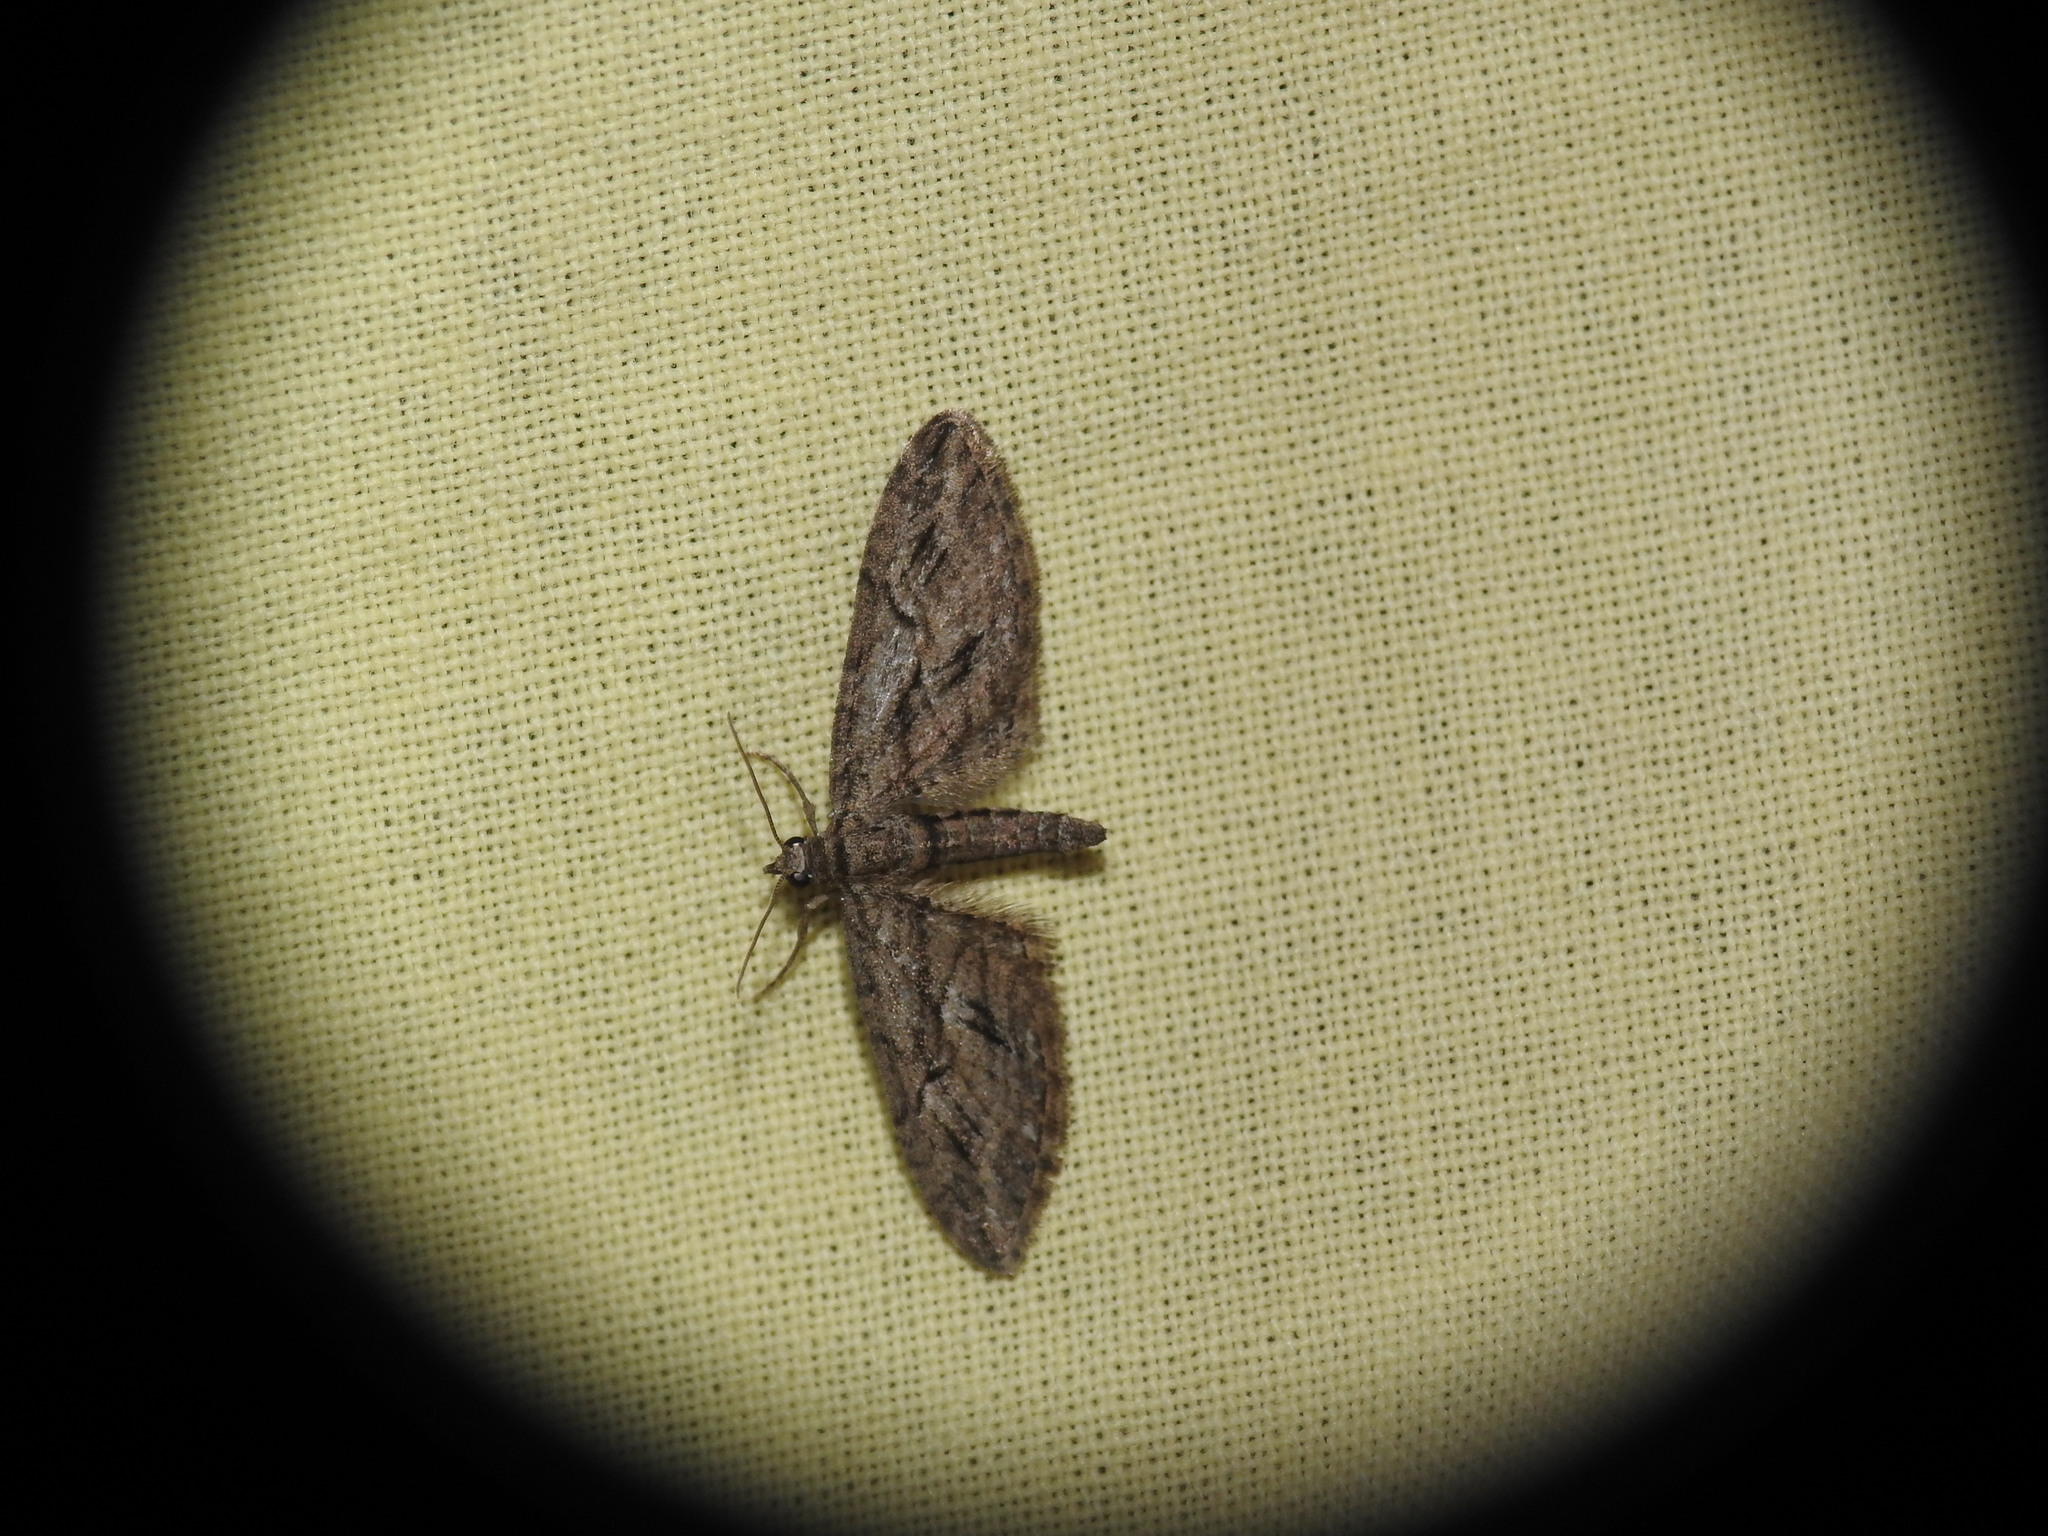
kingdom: Animalia
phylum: Arthropoda
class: Insecta
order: Lepidoptera
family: Geometridae
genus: Eupithecia
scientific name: Eupithecia oxycedrata
